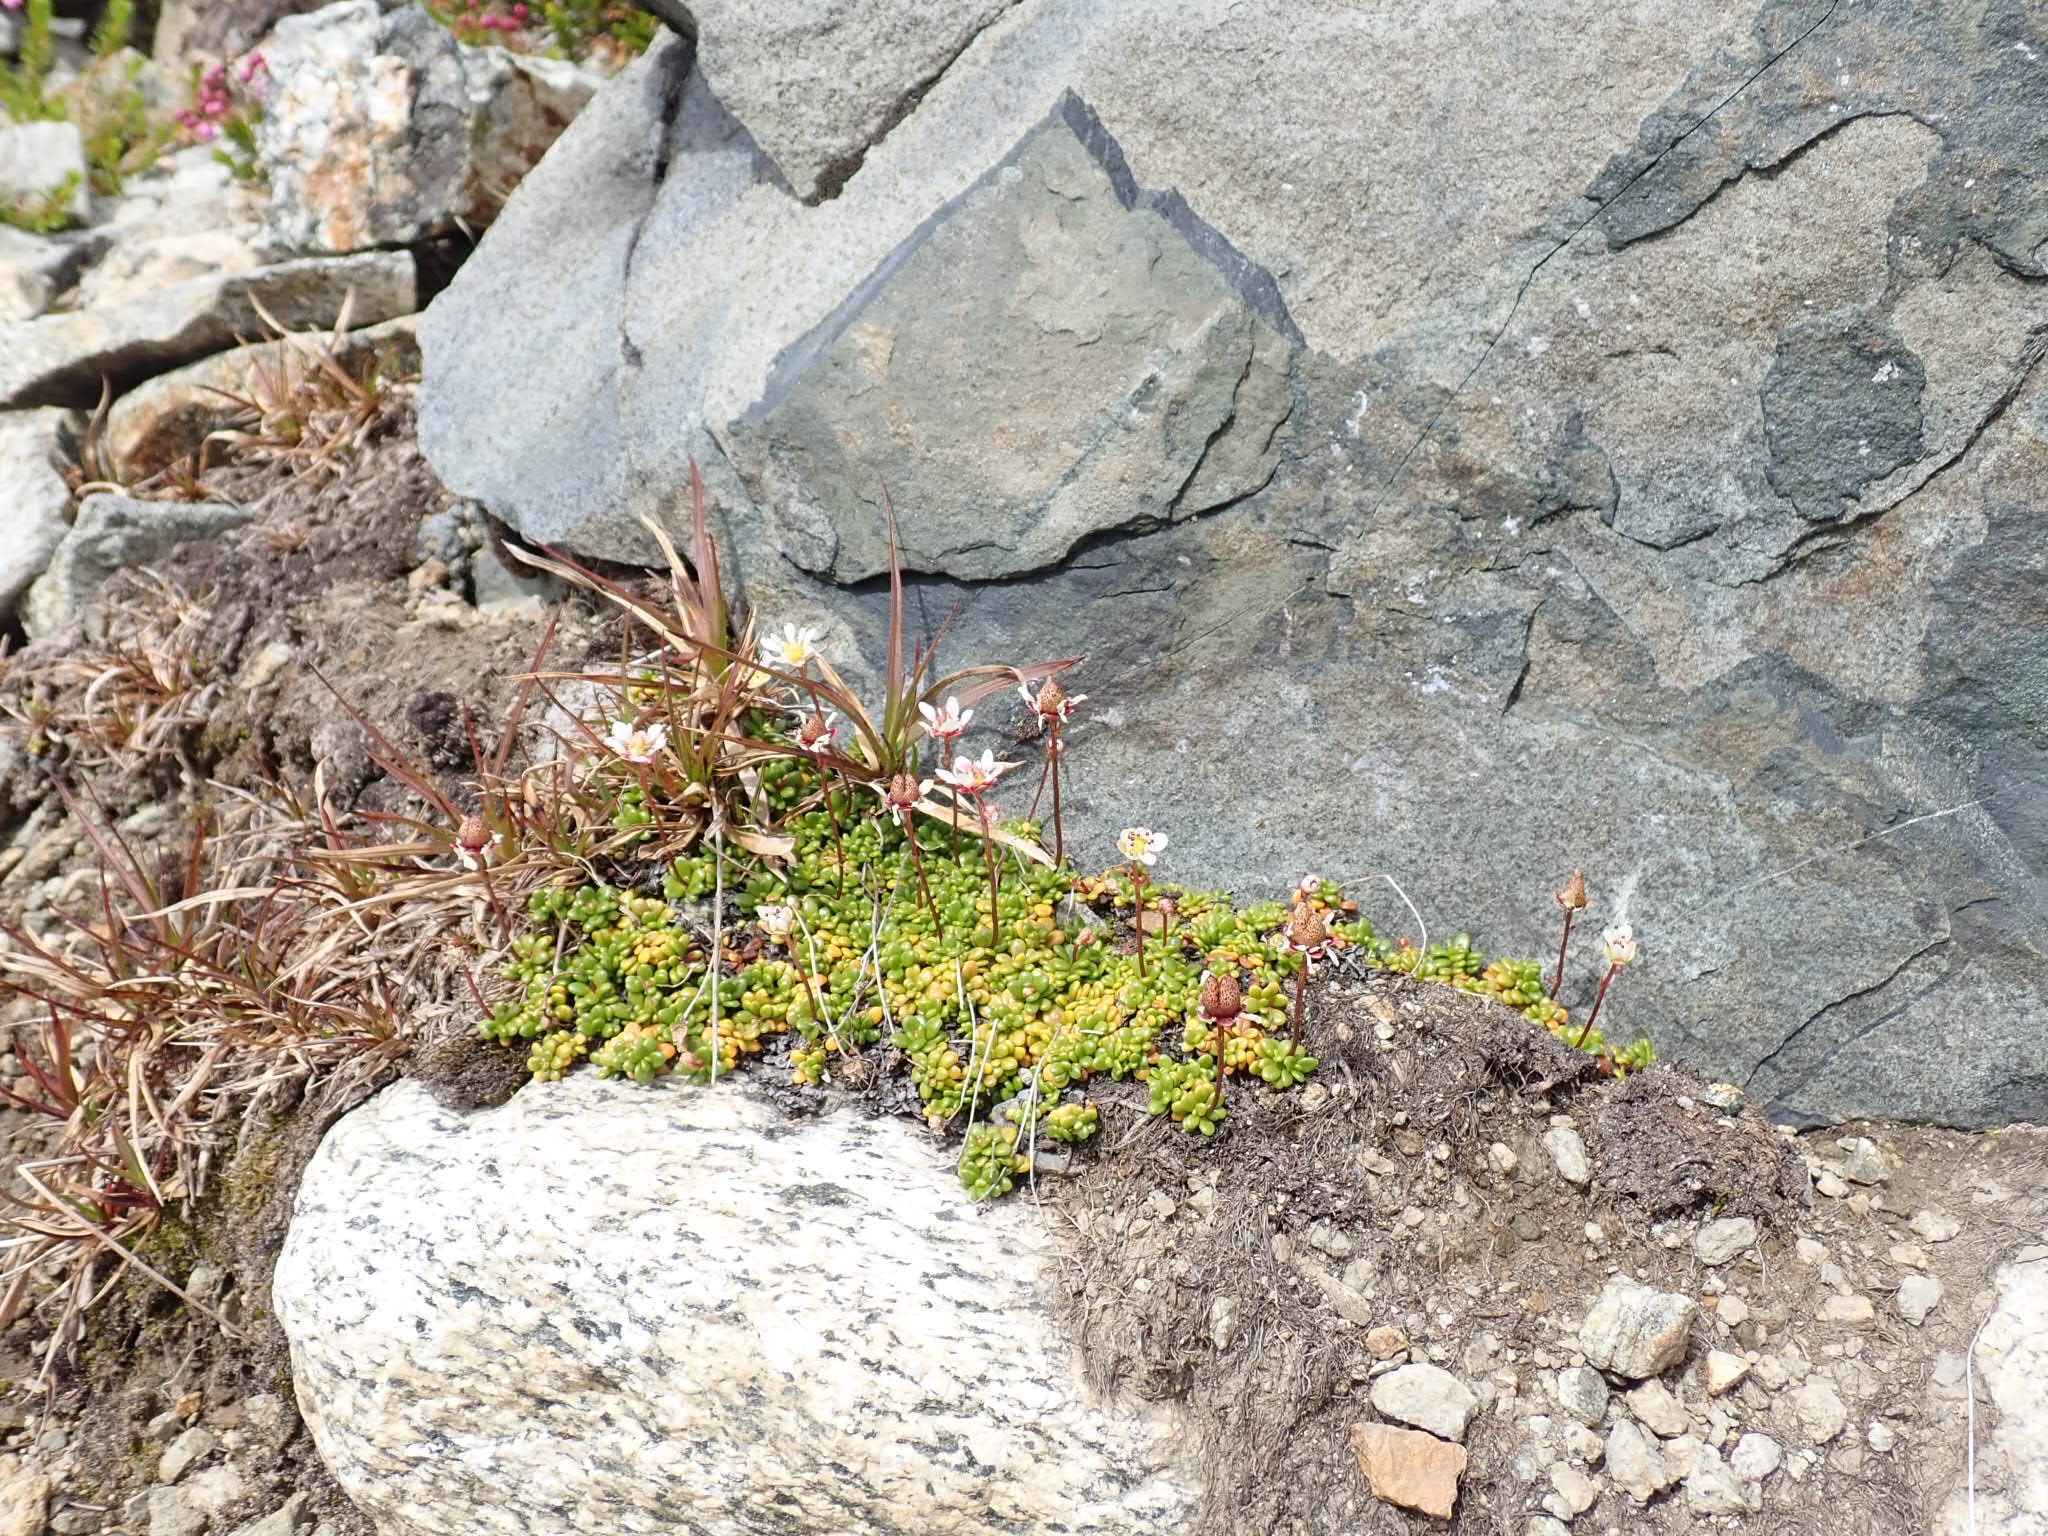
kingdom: Plantae
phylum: Tracheophyta
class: Magnoliopsida
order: Saxifragales
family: Saxifragaceae
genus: Micranthes
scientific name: Micranthes tolmiei
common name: Tolmie's saxifrage
